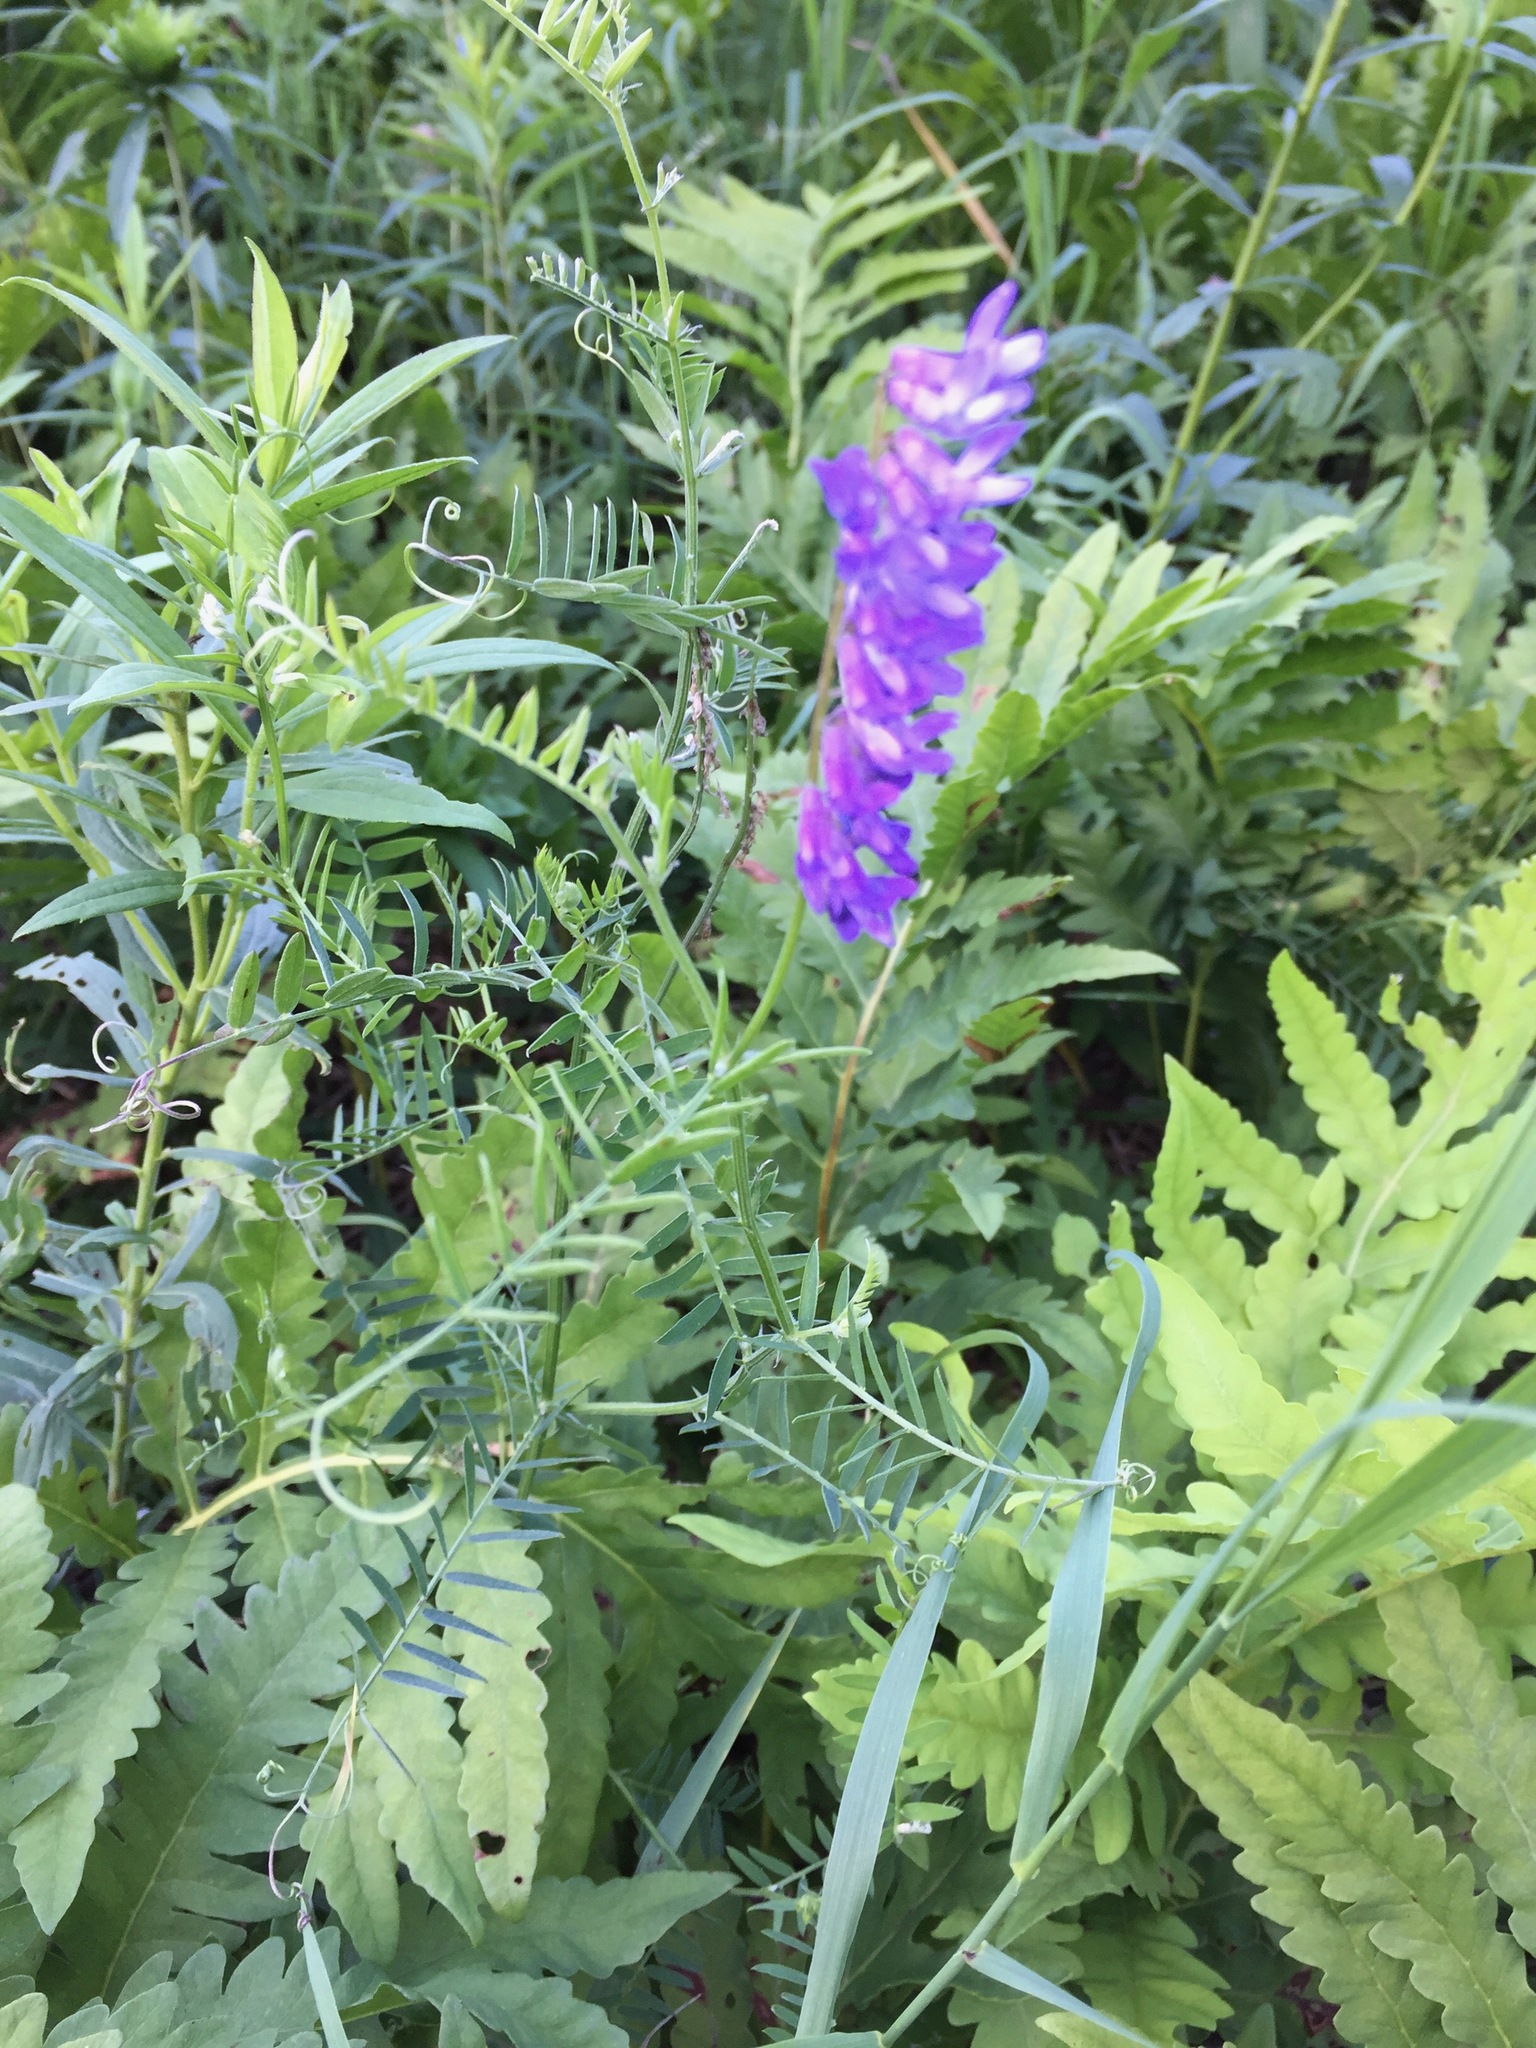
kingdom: Plantae
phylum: Tracheophyta
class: Magnoliopsida
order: Fabales
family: Fabaceae
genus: Vicia
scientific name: Vicia cracca
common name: Bird vetch
